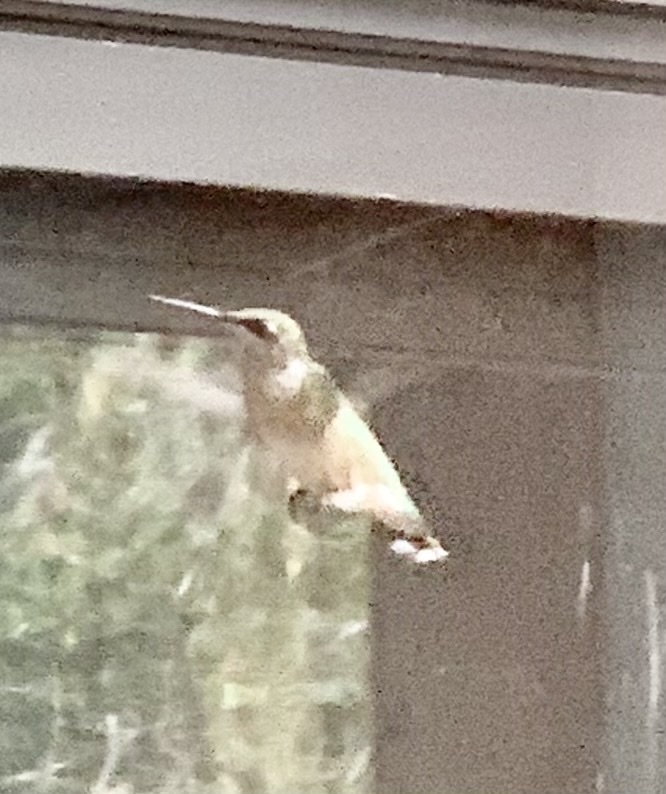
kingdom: Animalia
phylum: Chordata
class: Aves
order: Apodiformes
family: Trochilidae
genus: Archilochus
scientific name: Archilochus colubris
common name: Ruby-throated hummingbird
